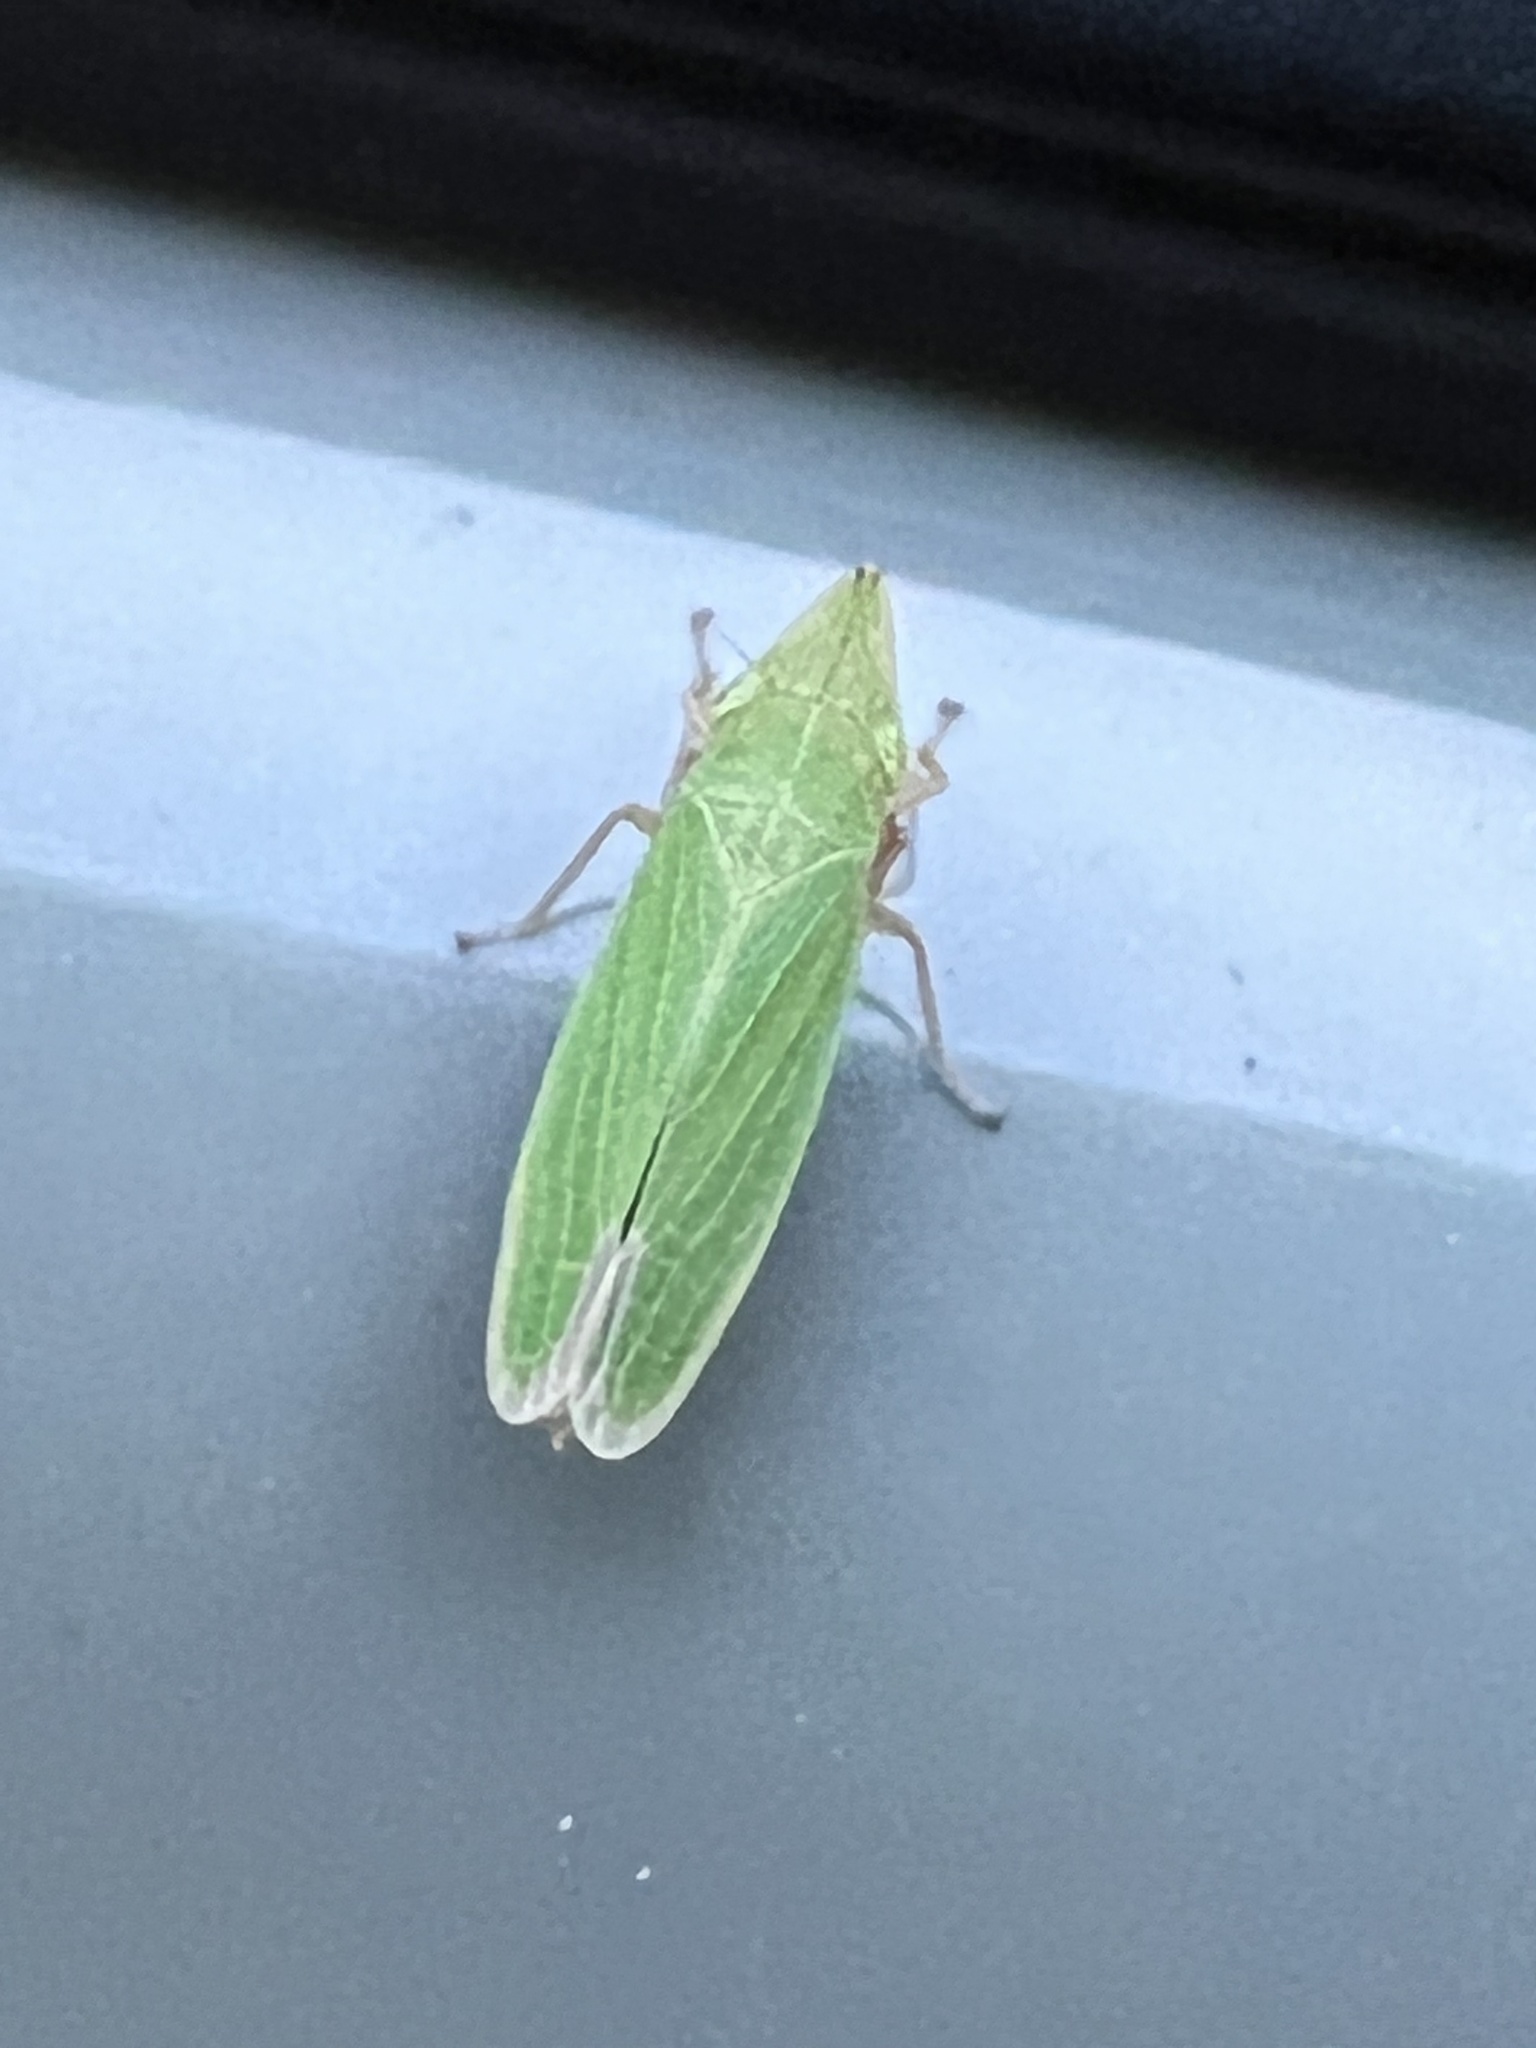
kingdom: Animalia
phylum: Arthropoda
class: Insecta
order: Hemiptera
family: Cicadellidae
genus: Draeculacephala
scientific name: Draeculacephala antica
